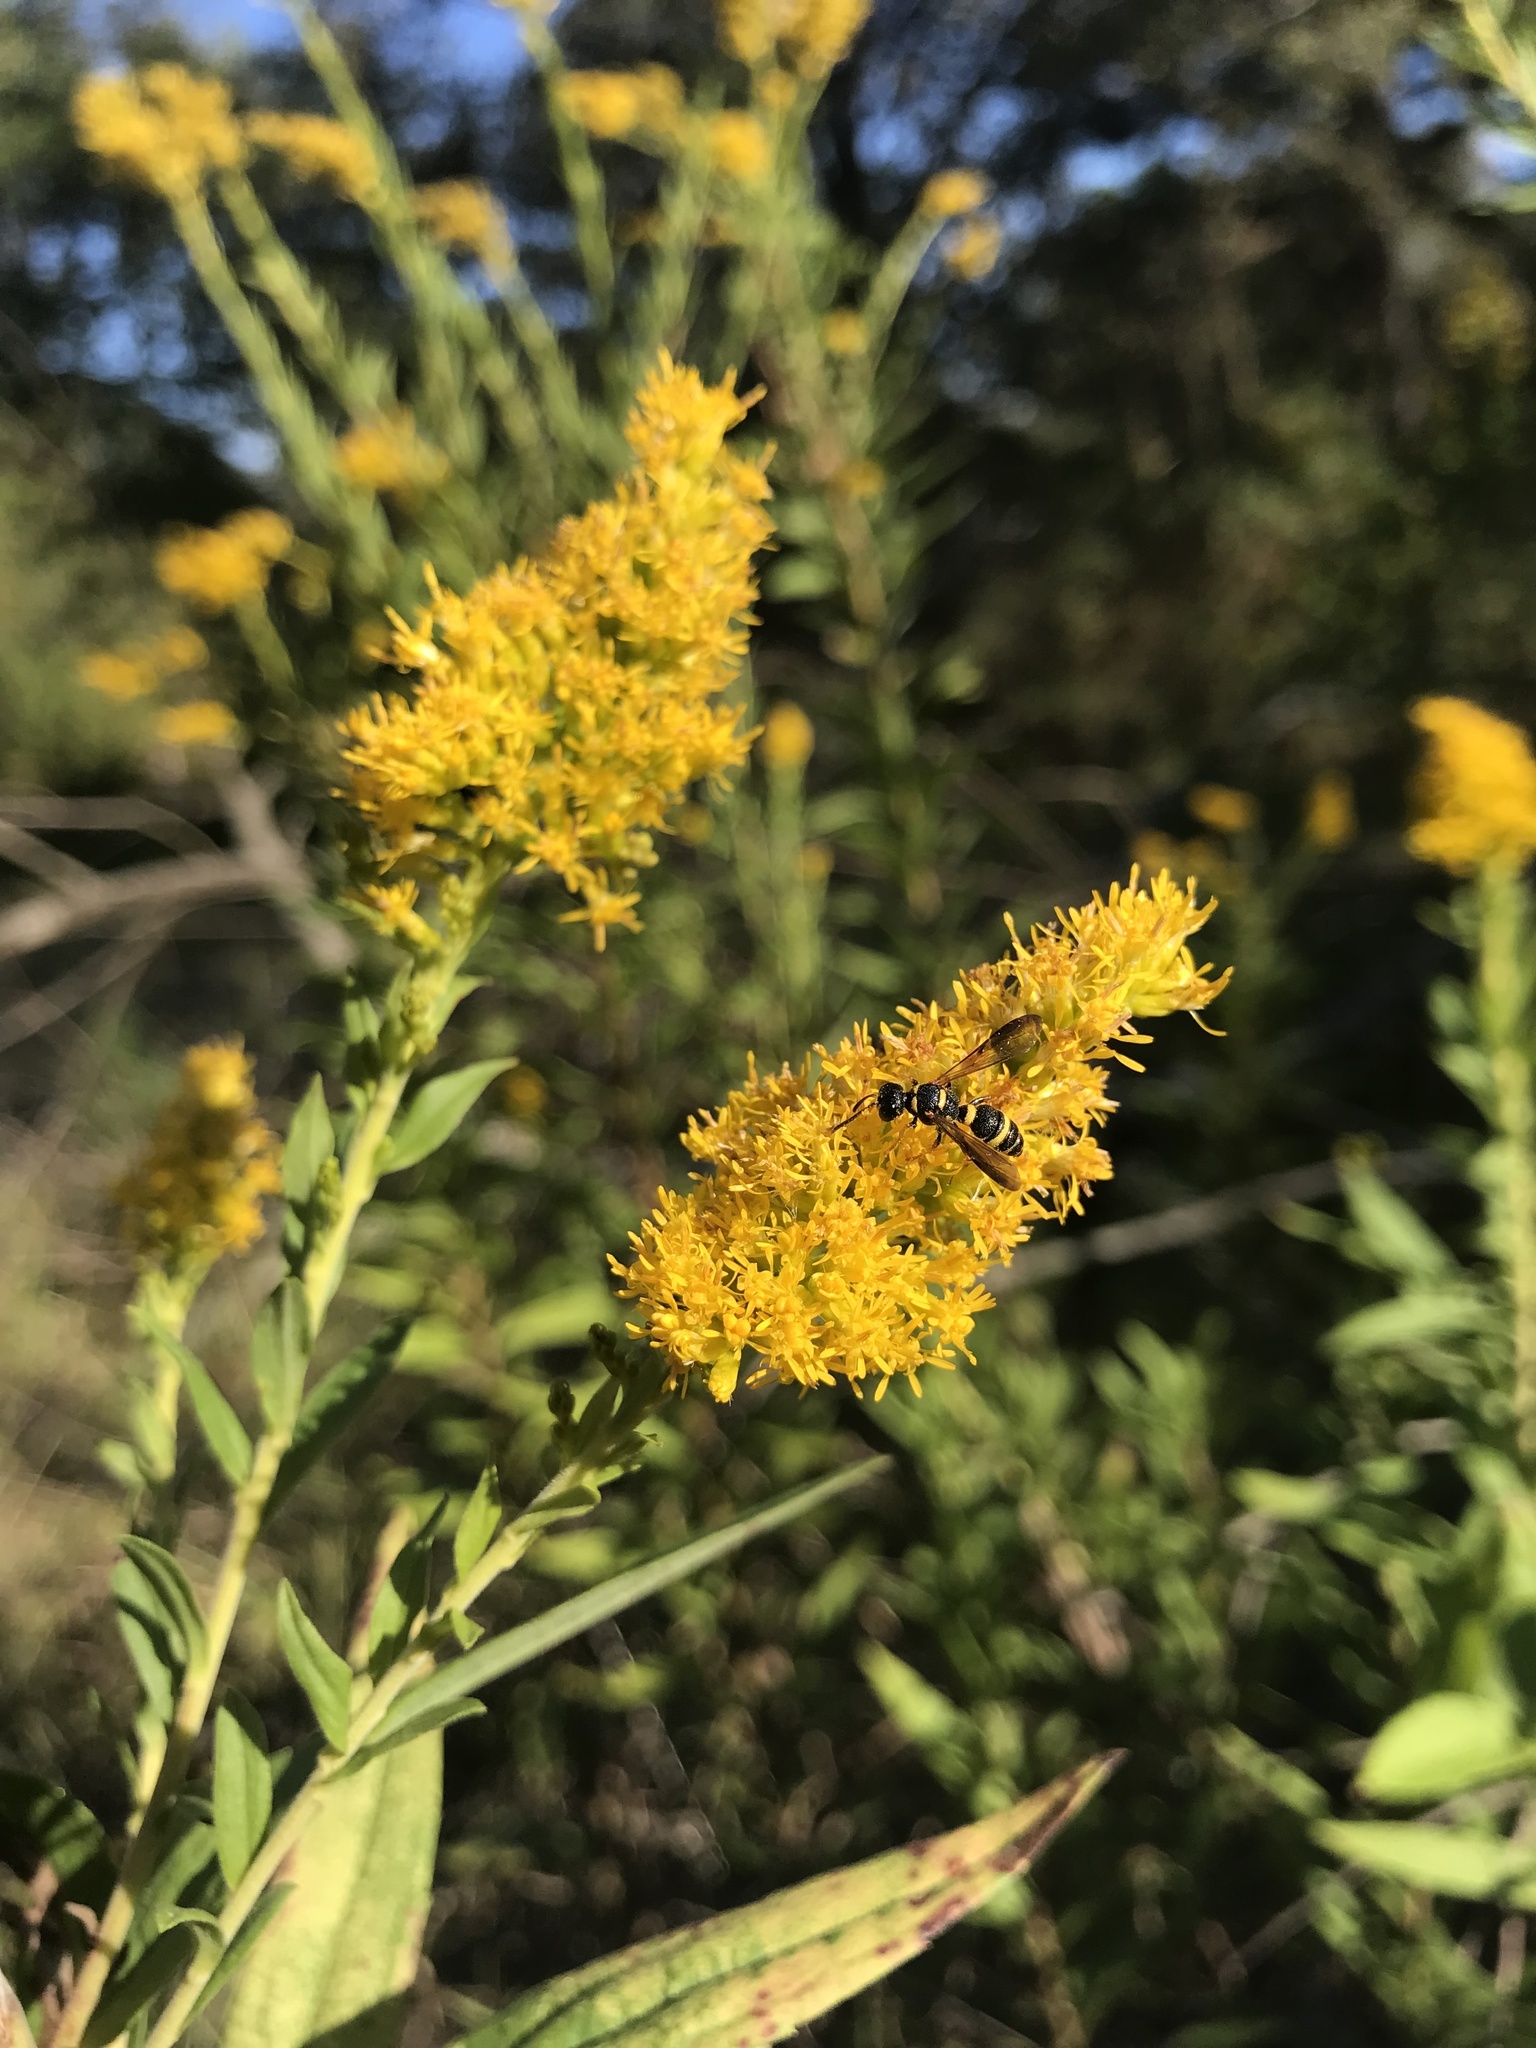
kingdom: Animalia
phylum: Arthropoda
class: Insecta
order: Hymenoptera
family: Crabronidae
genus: Cerceris
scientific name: Cerceris insolita
